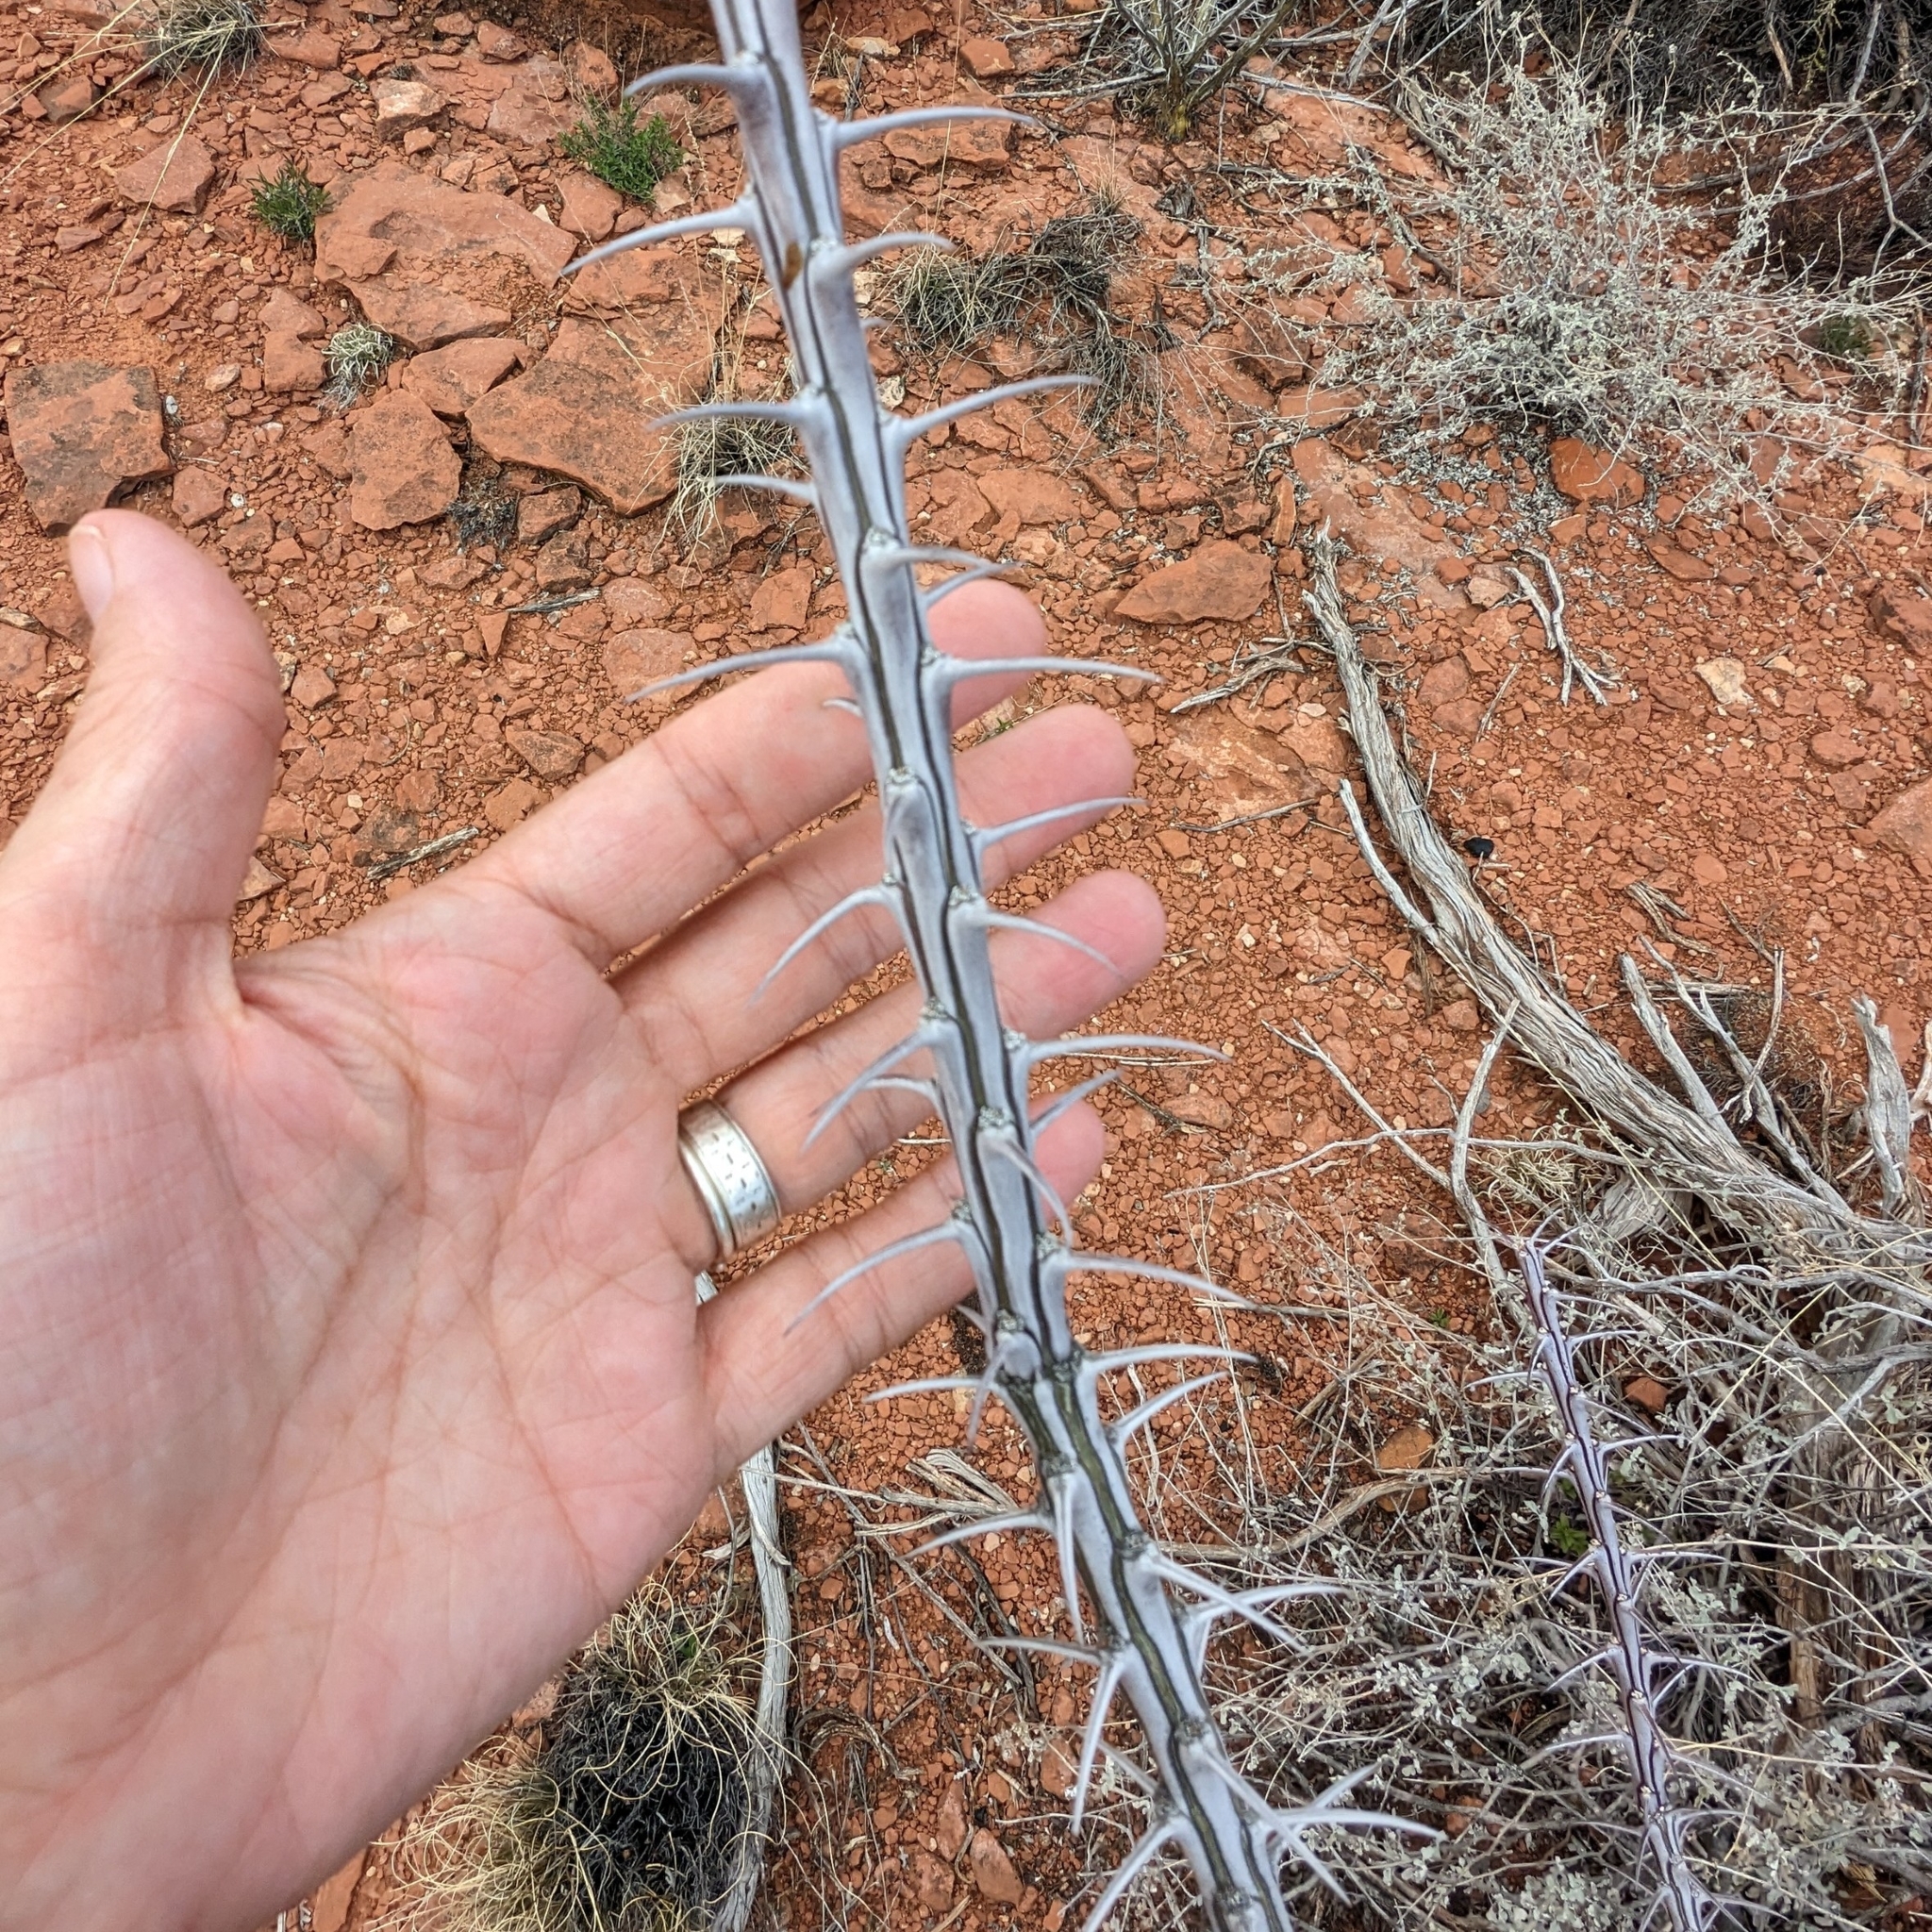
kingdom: Plantae
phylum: Tracheophyta
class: Magnoliopsida
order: Ericales
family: Fouquieriaceae
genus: Fouquieria
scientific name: Fouquieria splendens
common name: Vine-cactus
